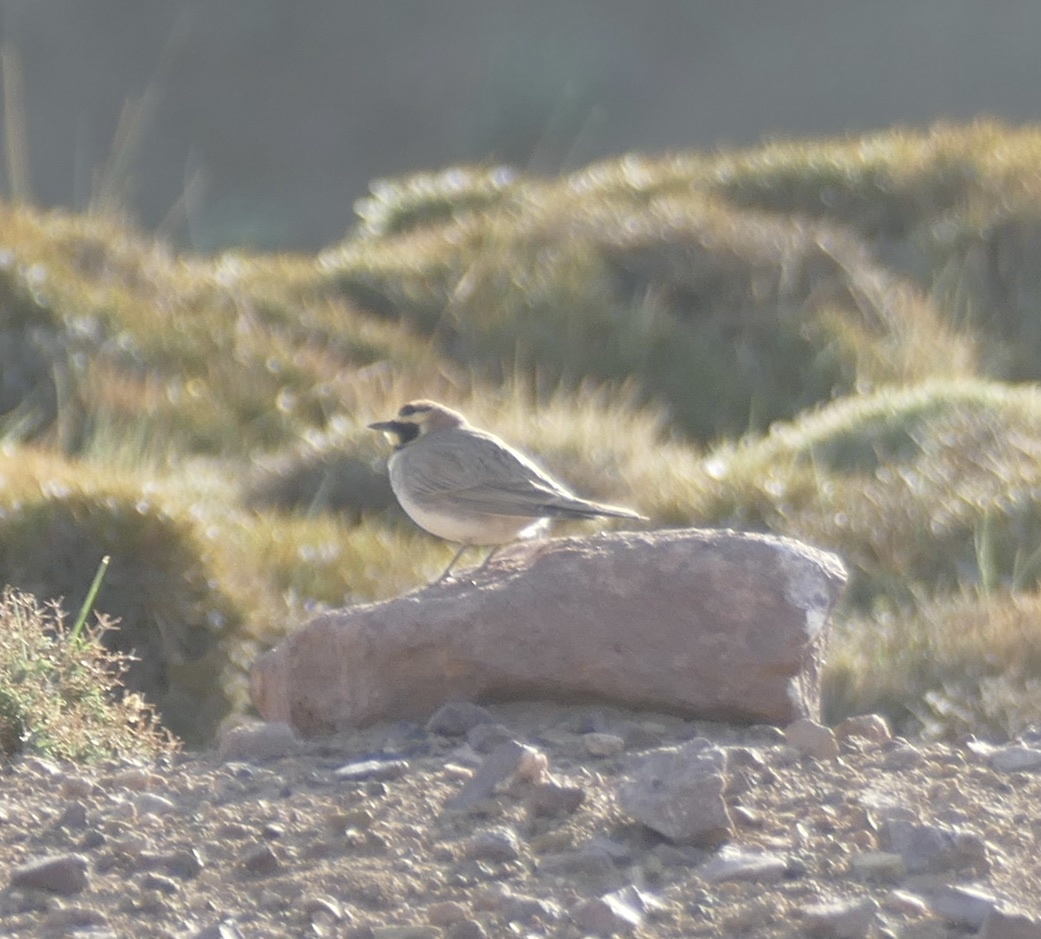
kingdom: Animalia
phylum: Chordata
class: Aves
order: Passeriformes
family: Alaudidae
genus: Eremophila
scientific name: Eremophila alpestris
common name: Horned lark
